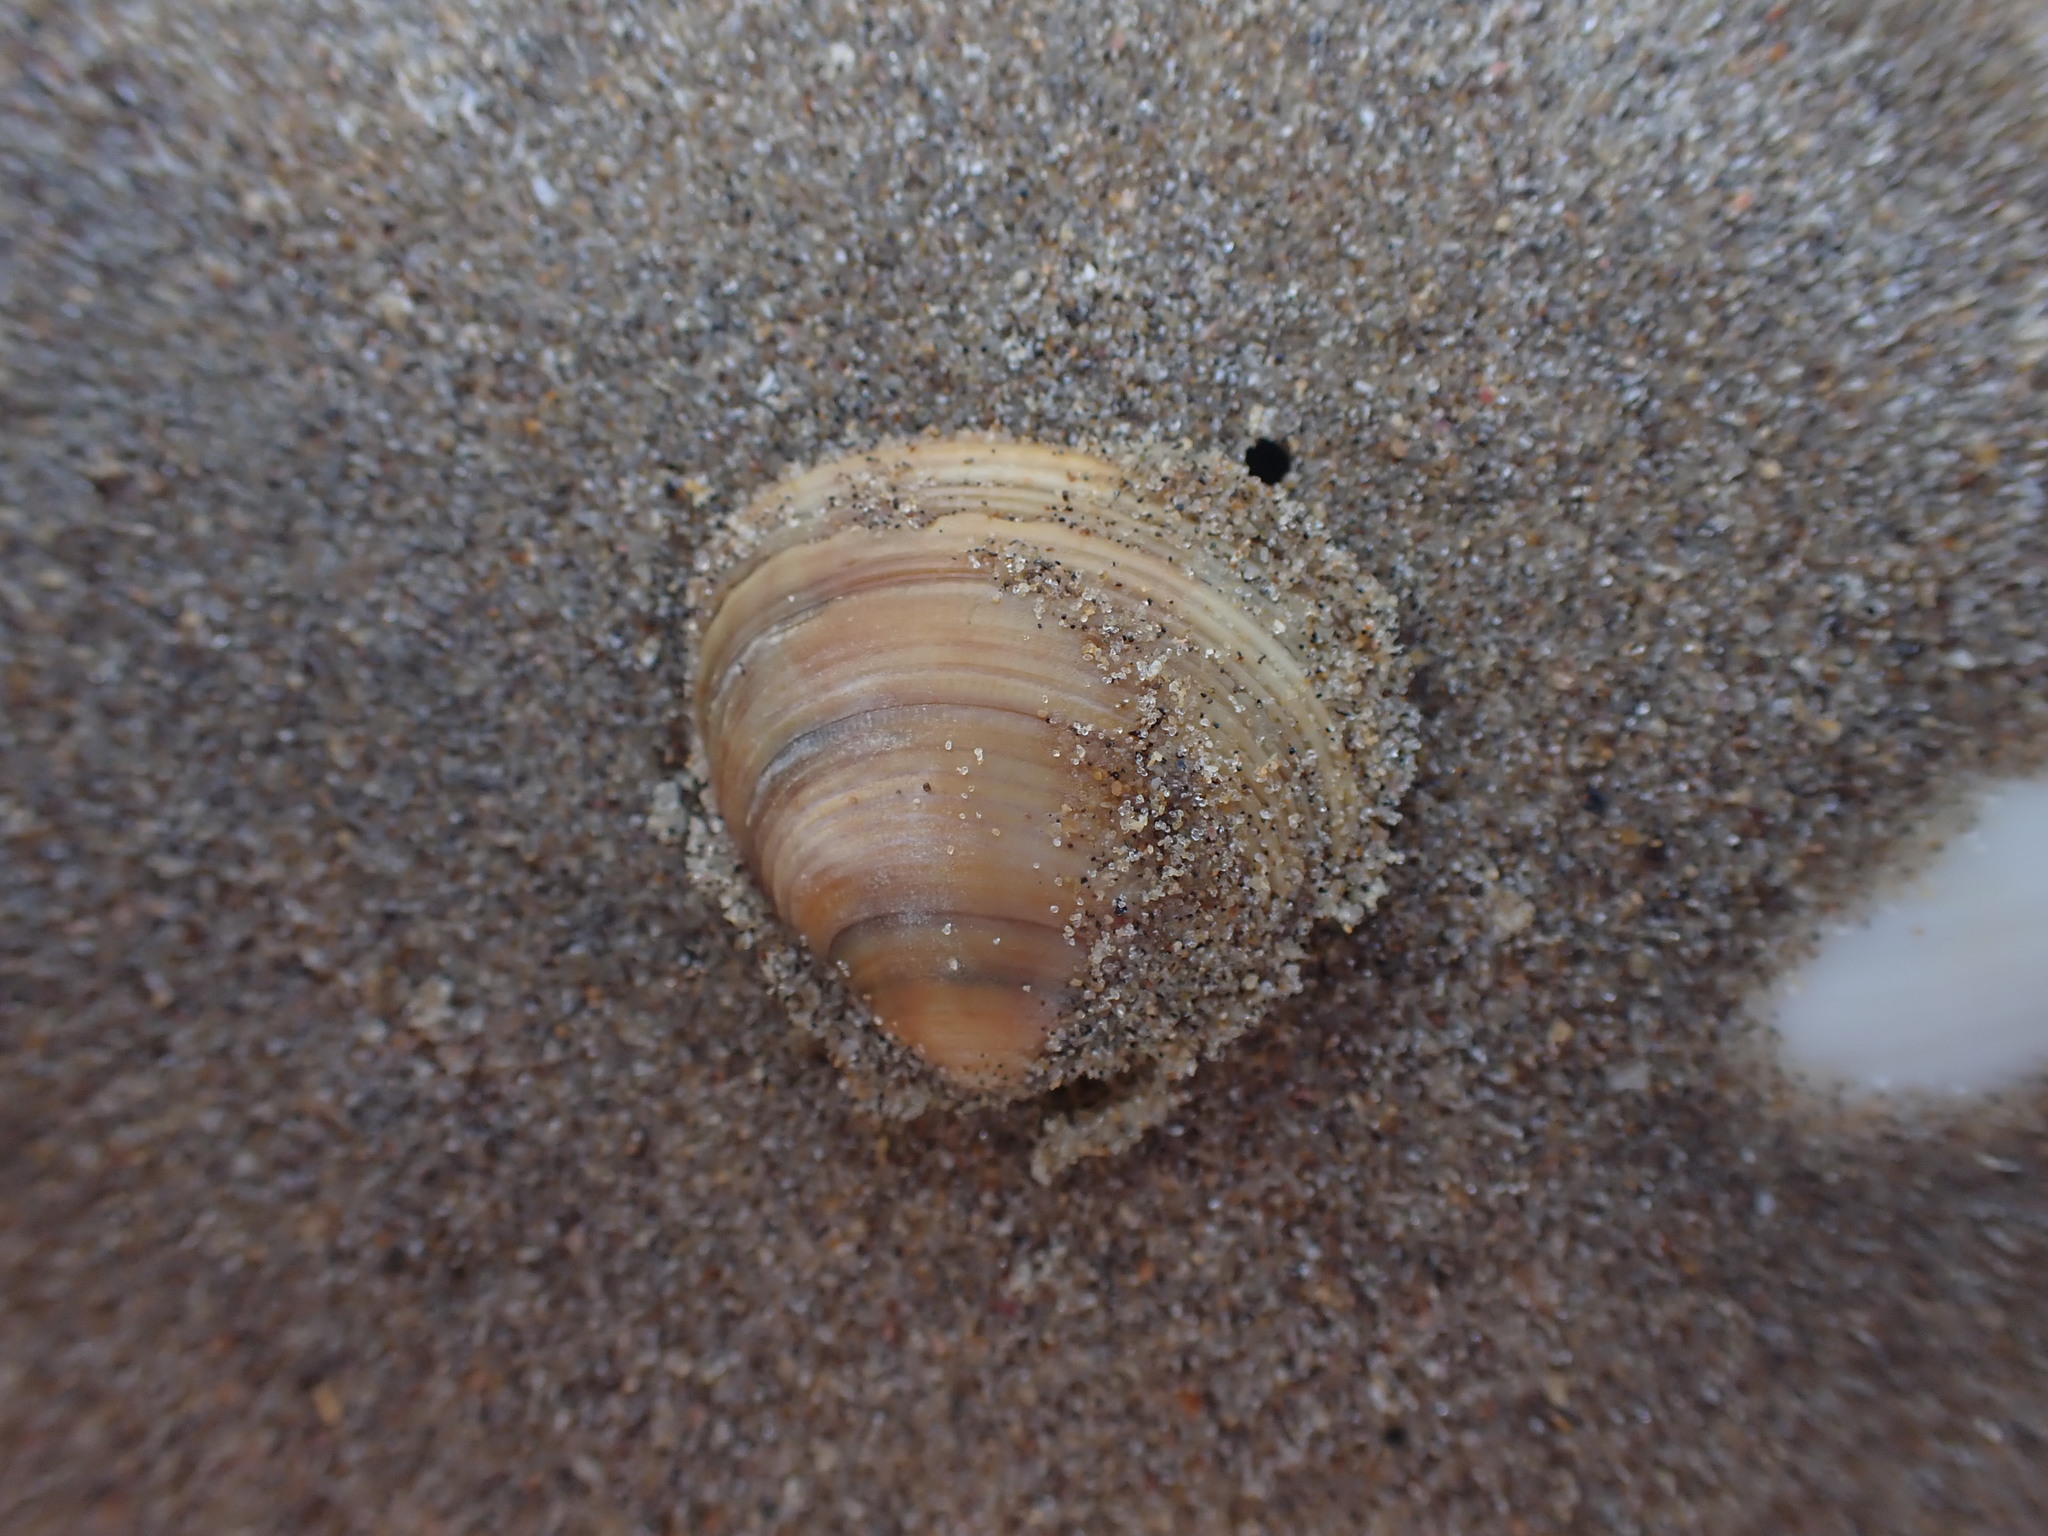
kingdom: Animalia
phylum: Mollusca
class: Bivalvia
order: Venerida
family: Veneridae
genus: Tawera
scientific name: Tawera spissa
